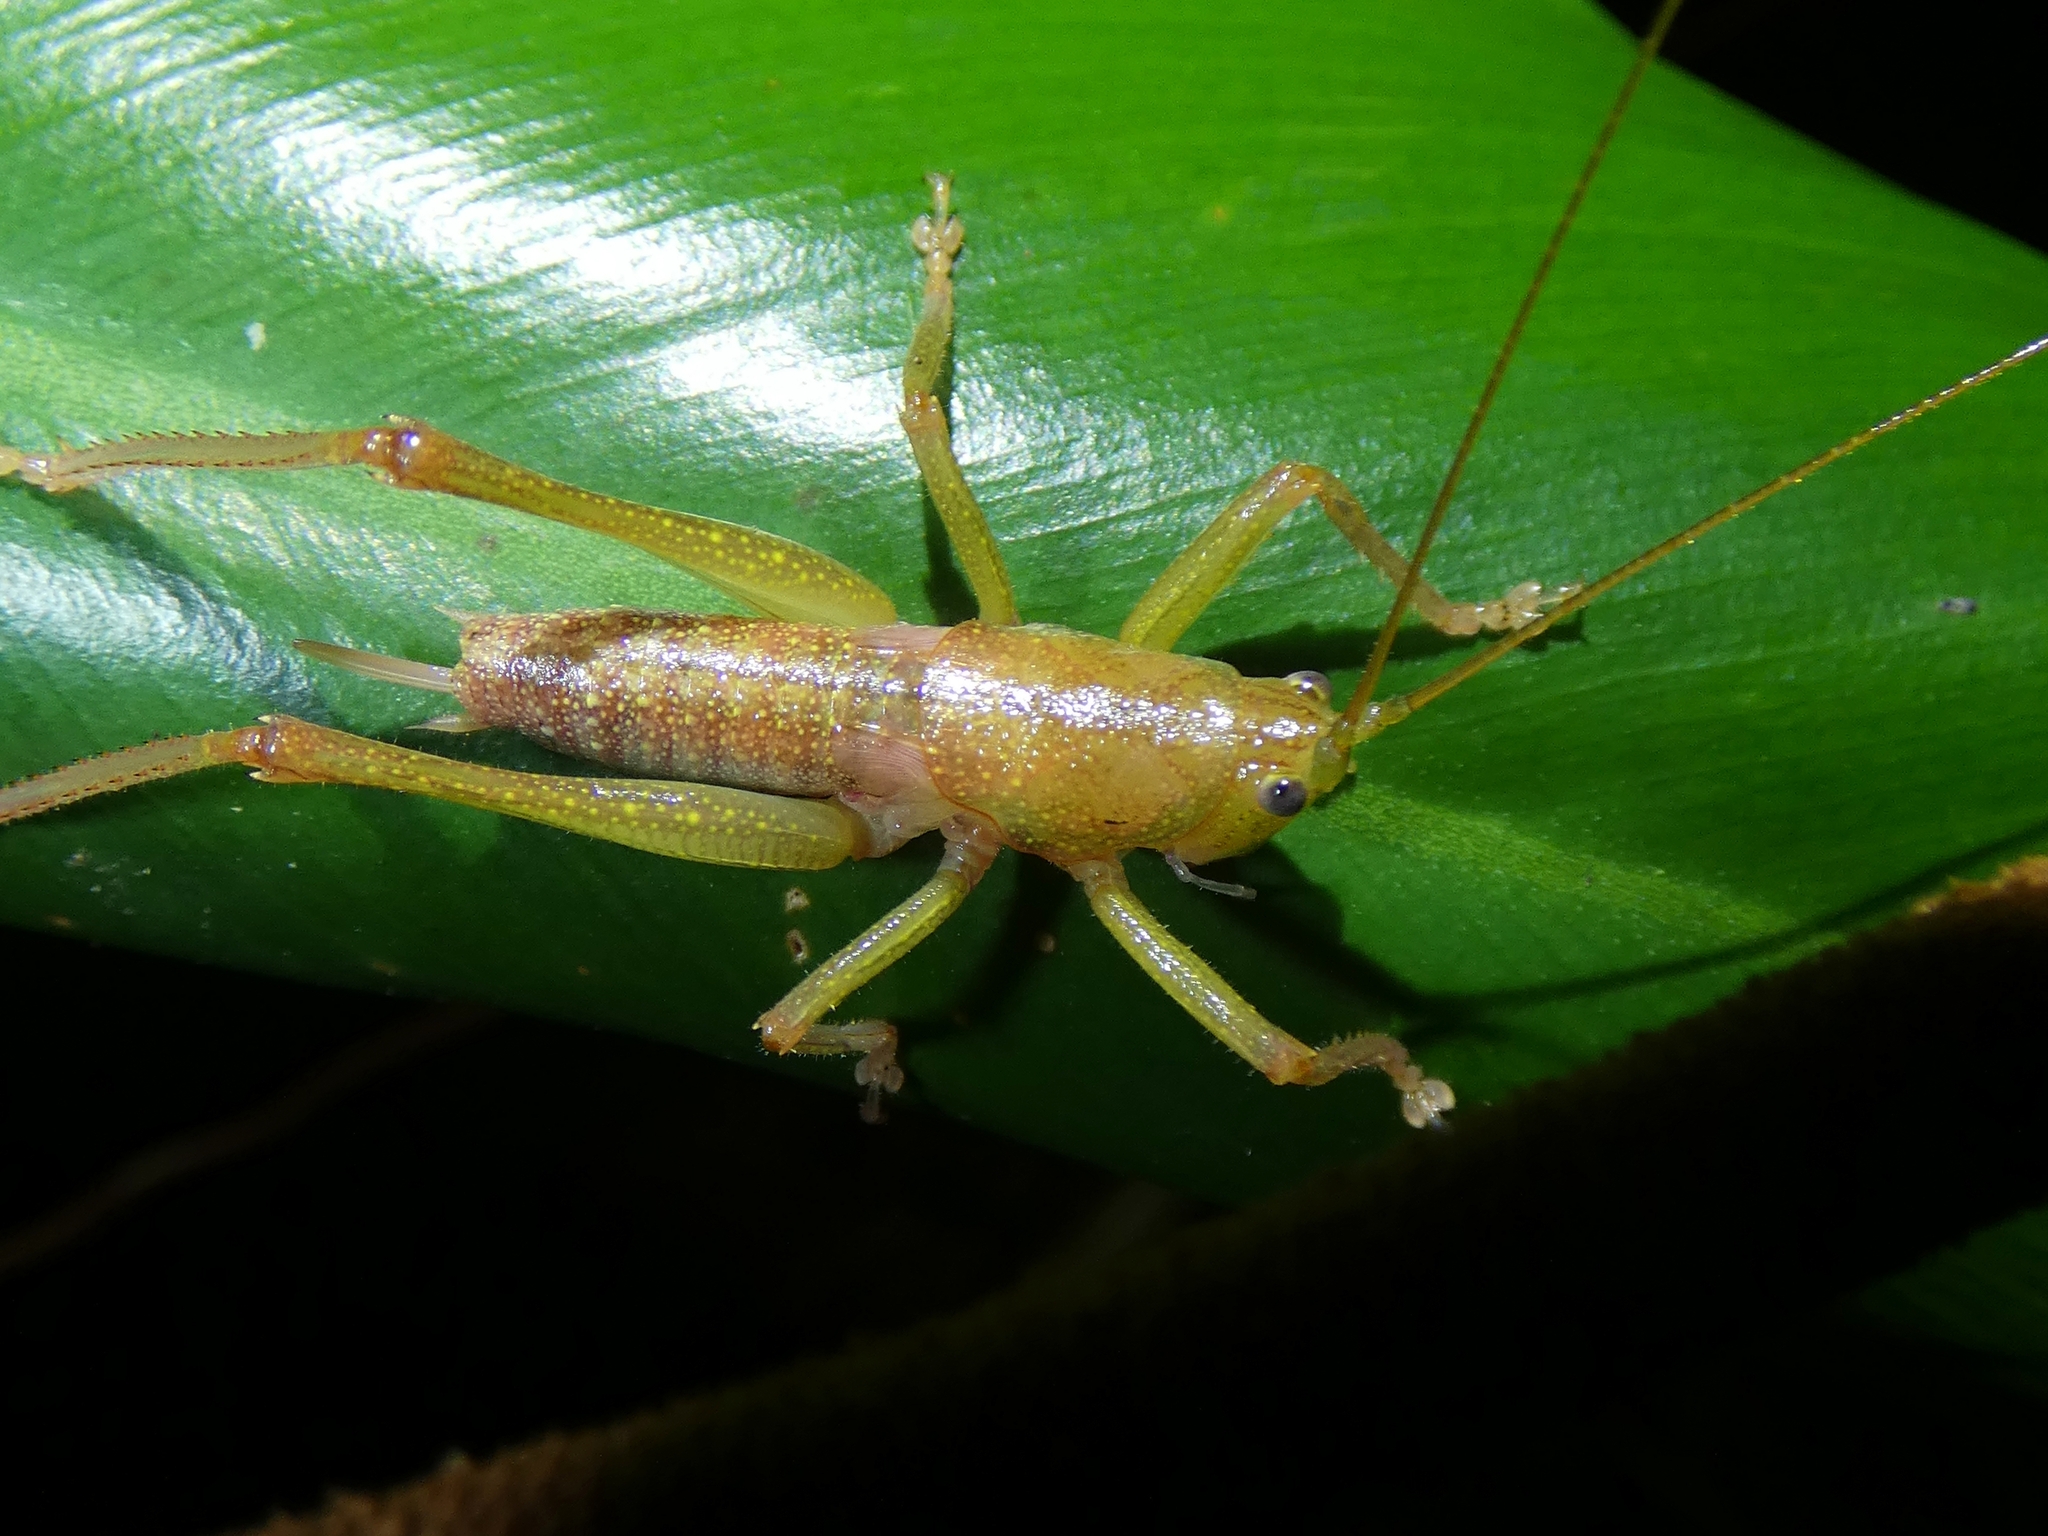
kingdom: Animalia
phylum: Arthropoda
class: Insecta
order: Orthoptera
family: Tettigoniidae
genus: Austrosalomona
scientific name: Austrosalomona destructor
